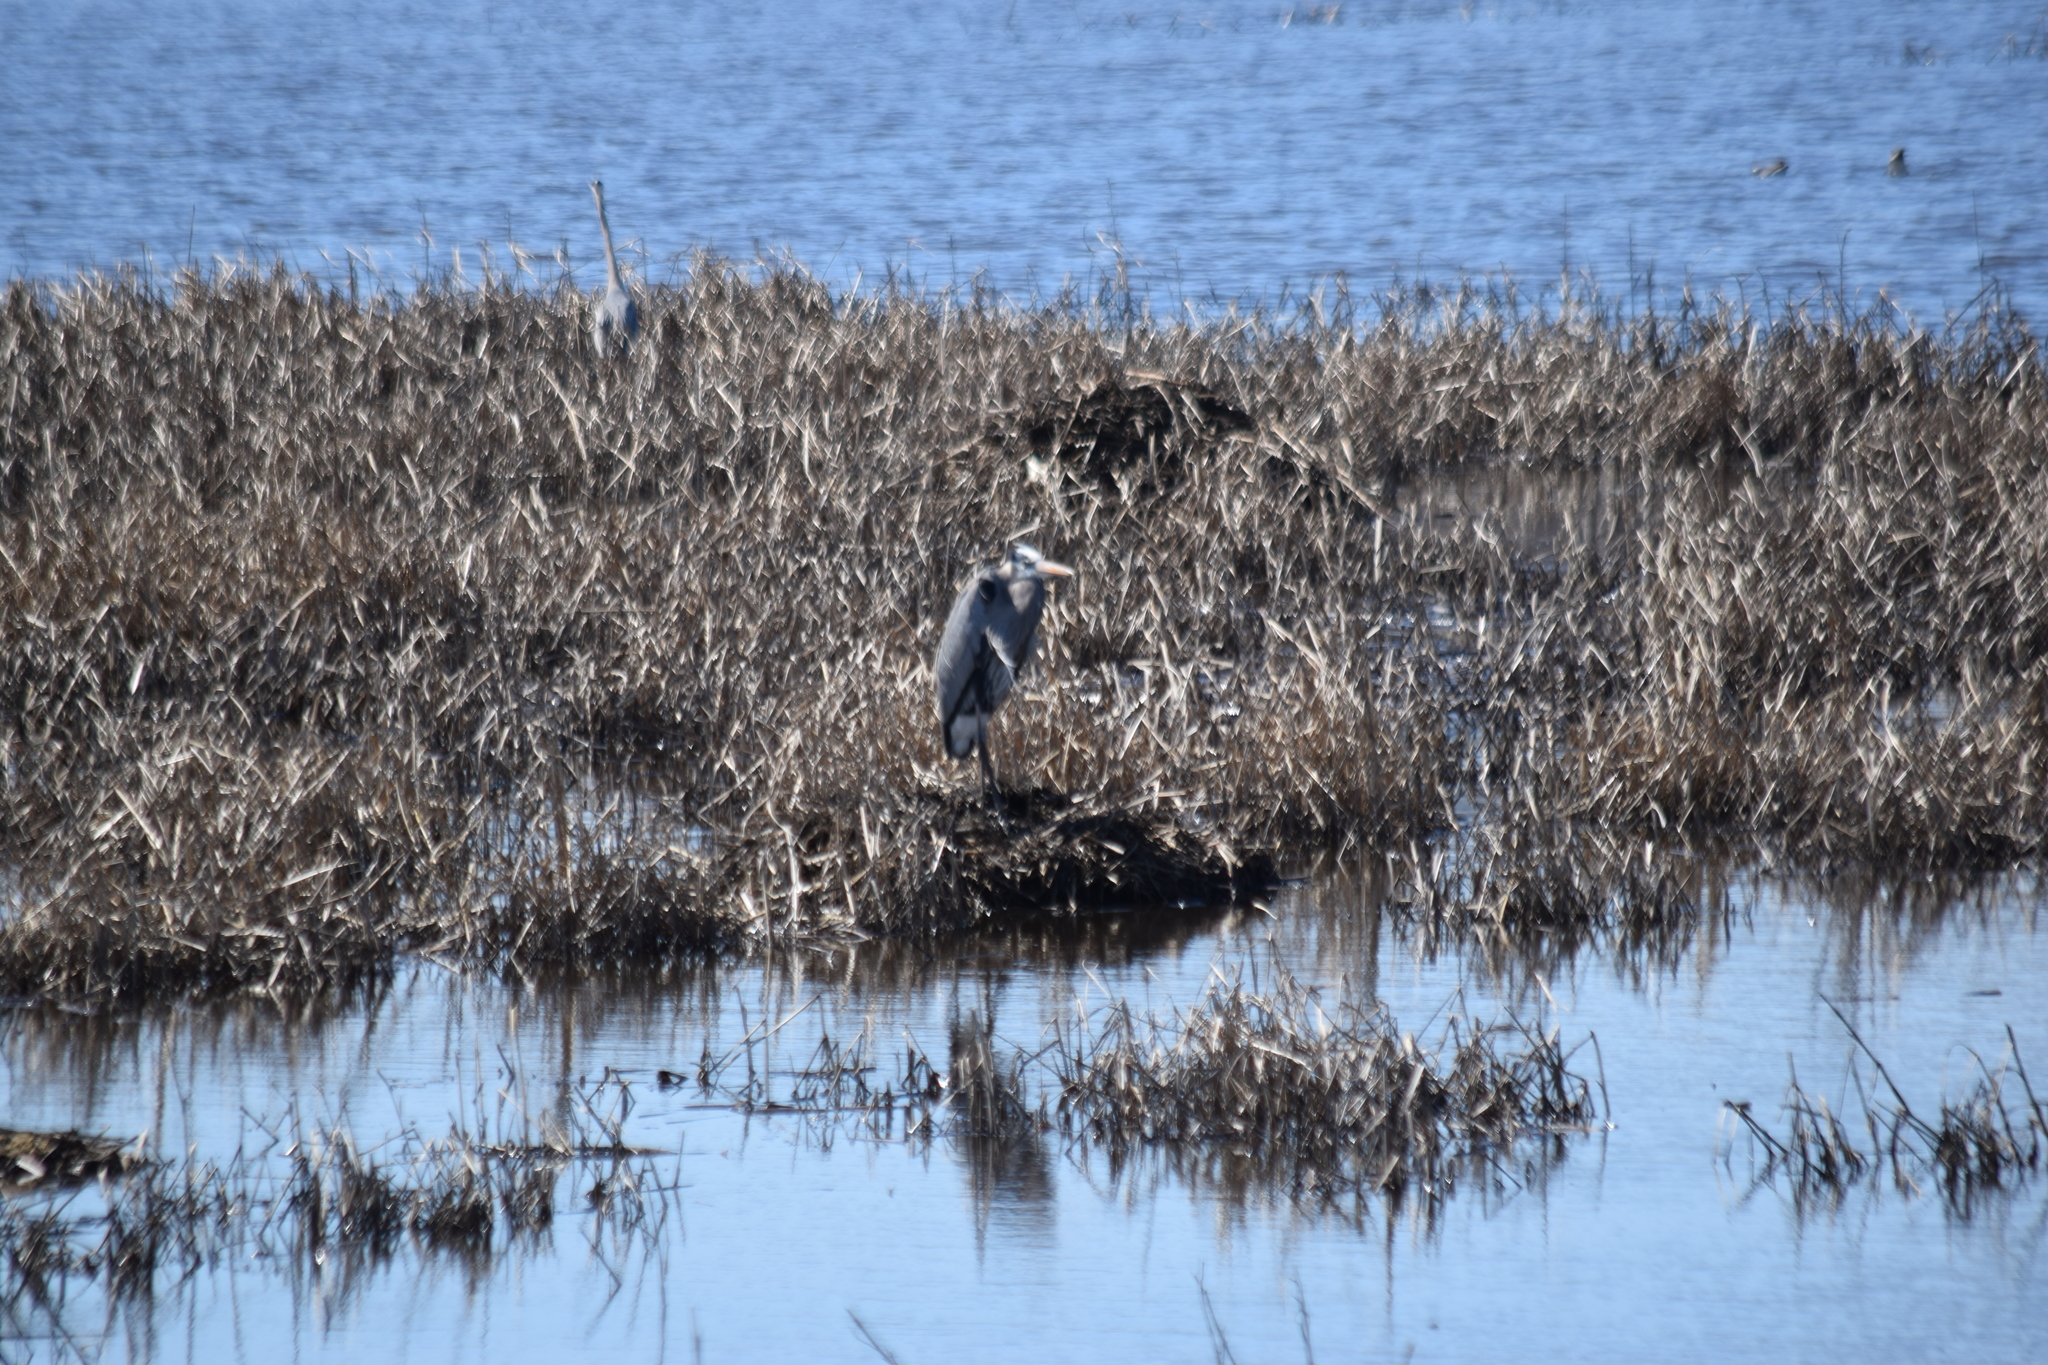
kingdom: Animalia
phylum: Chordata
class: Aves
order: Pelecaniformes
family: Ardeidae
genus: Ardea
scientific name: Ardea herodias
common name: Great blue heron
